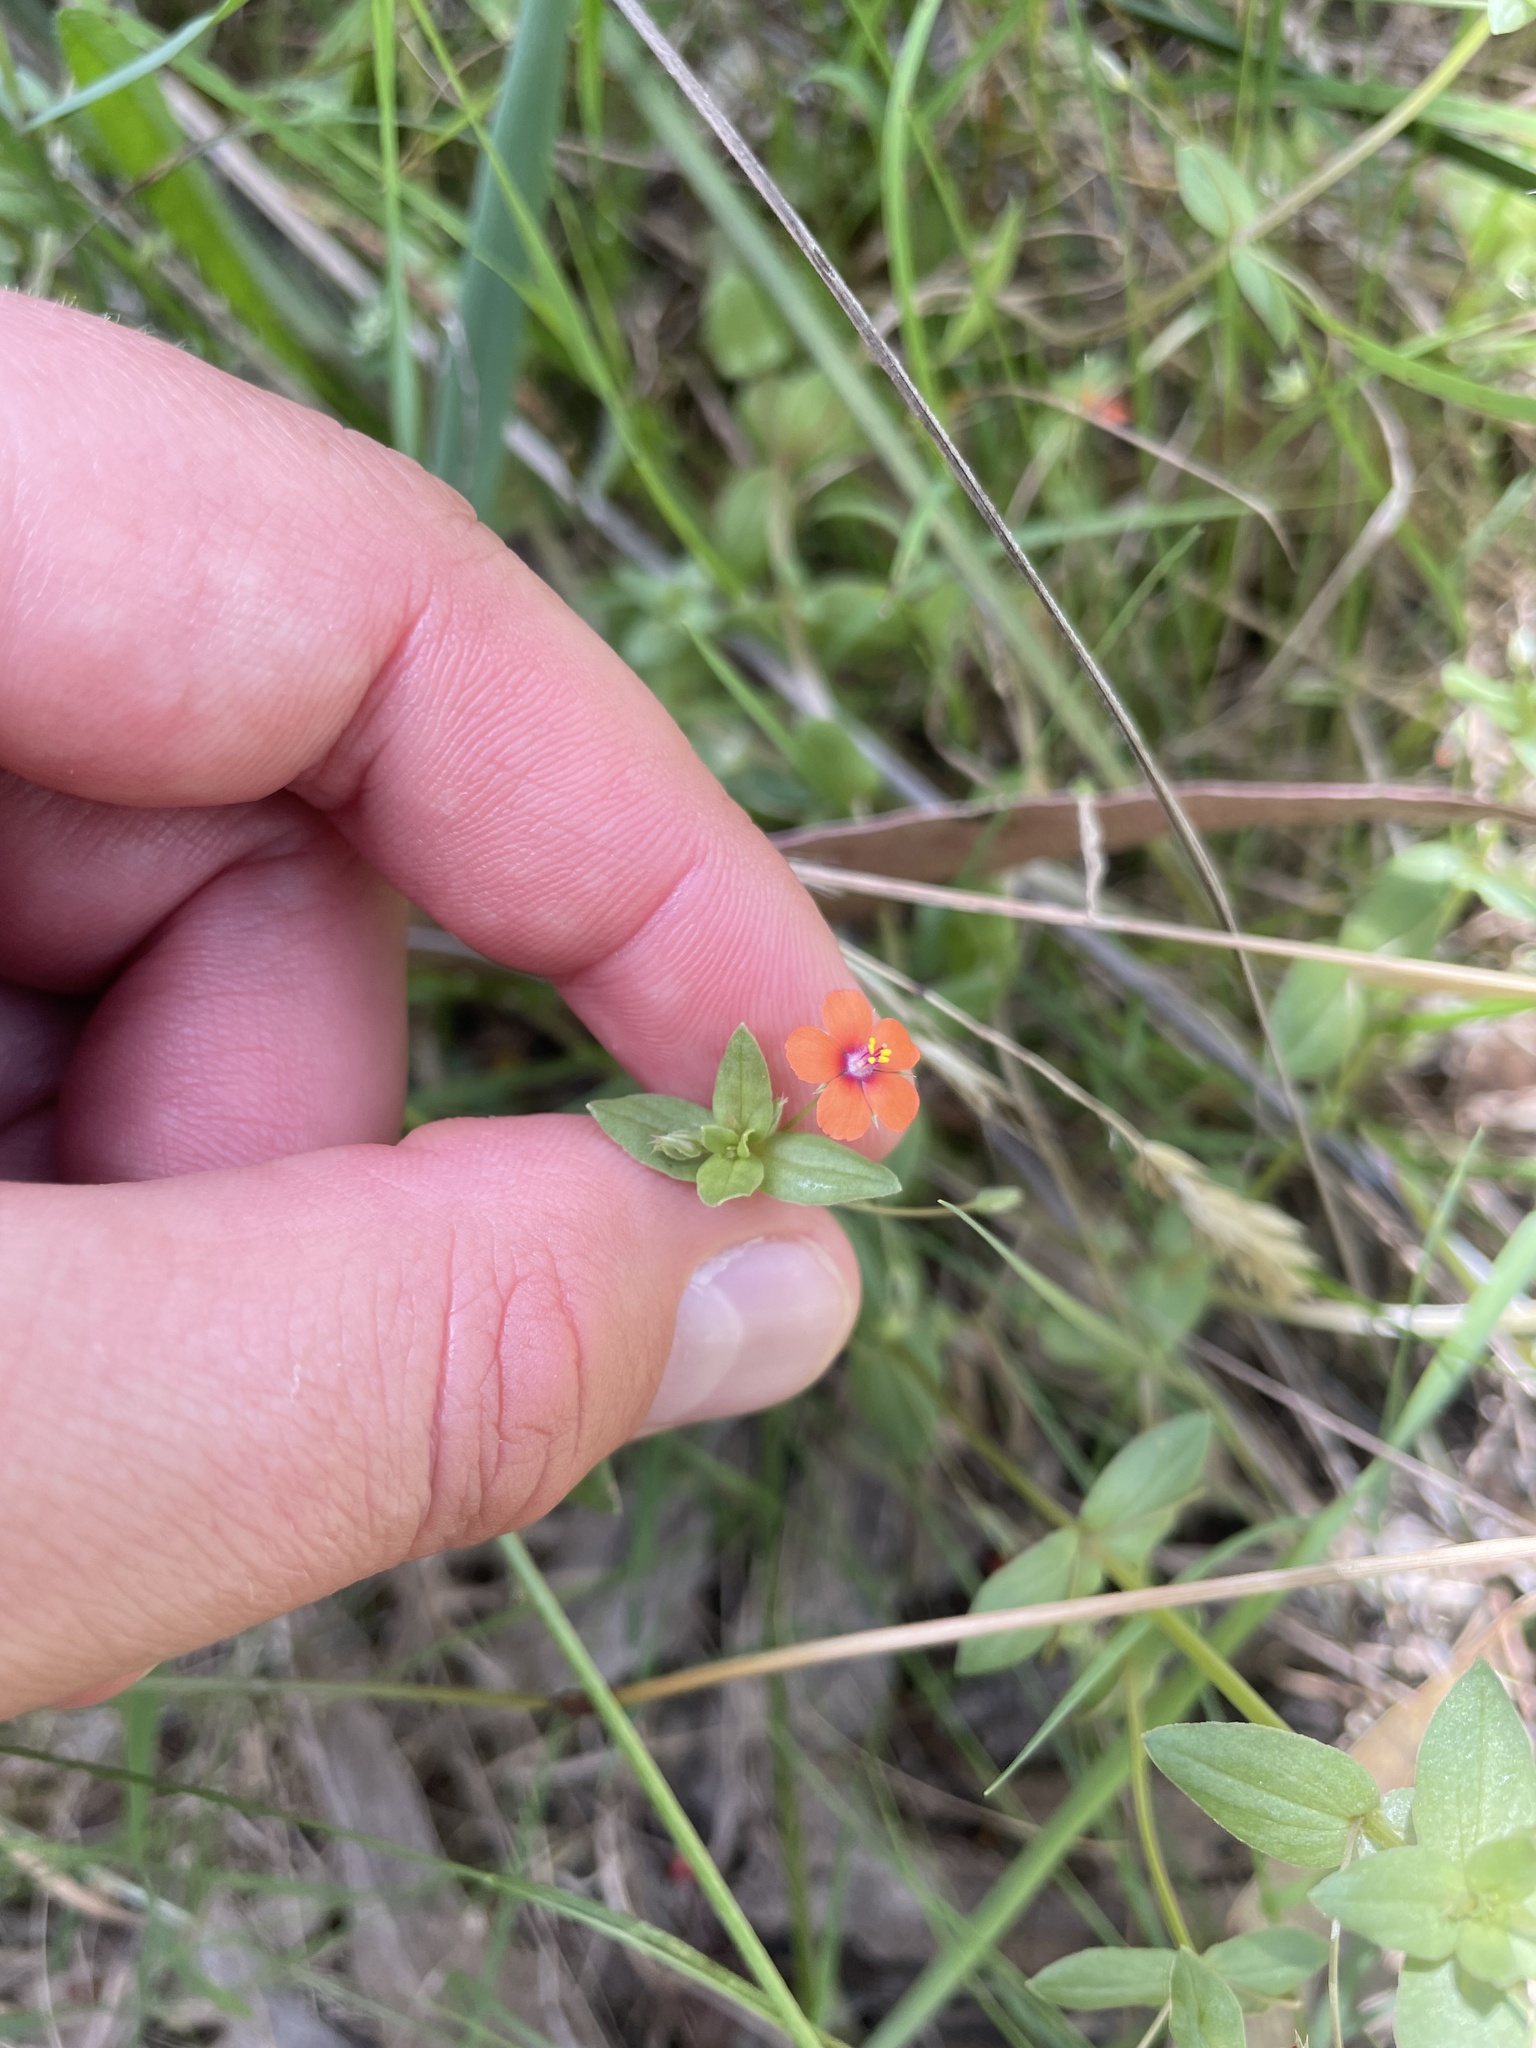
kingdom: Plantae
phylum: Tracheophyta
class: Magnoliopsida
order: Ericales
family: Primulaceae
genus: Lysimachia
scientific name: Lysimachia arvensis
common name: Scarlet pimpernel
